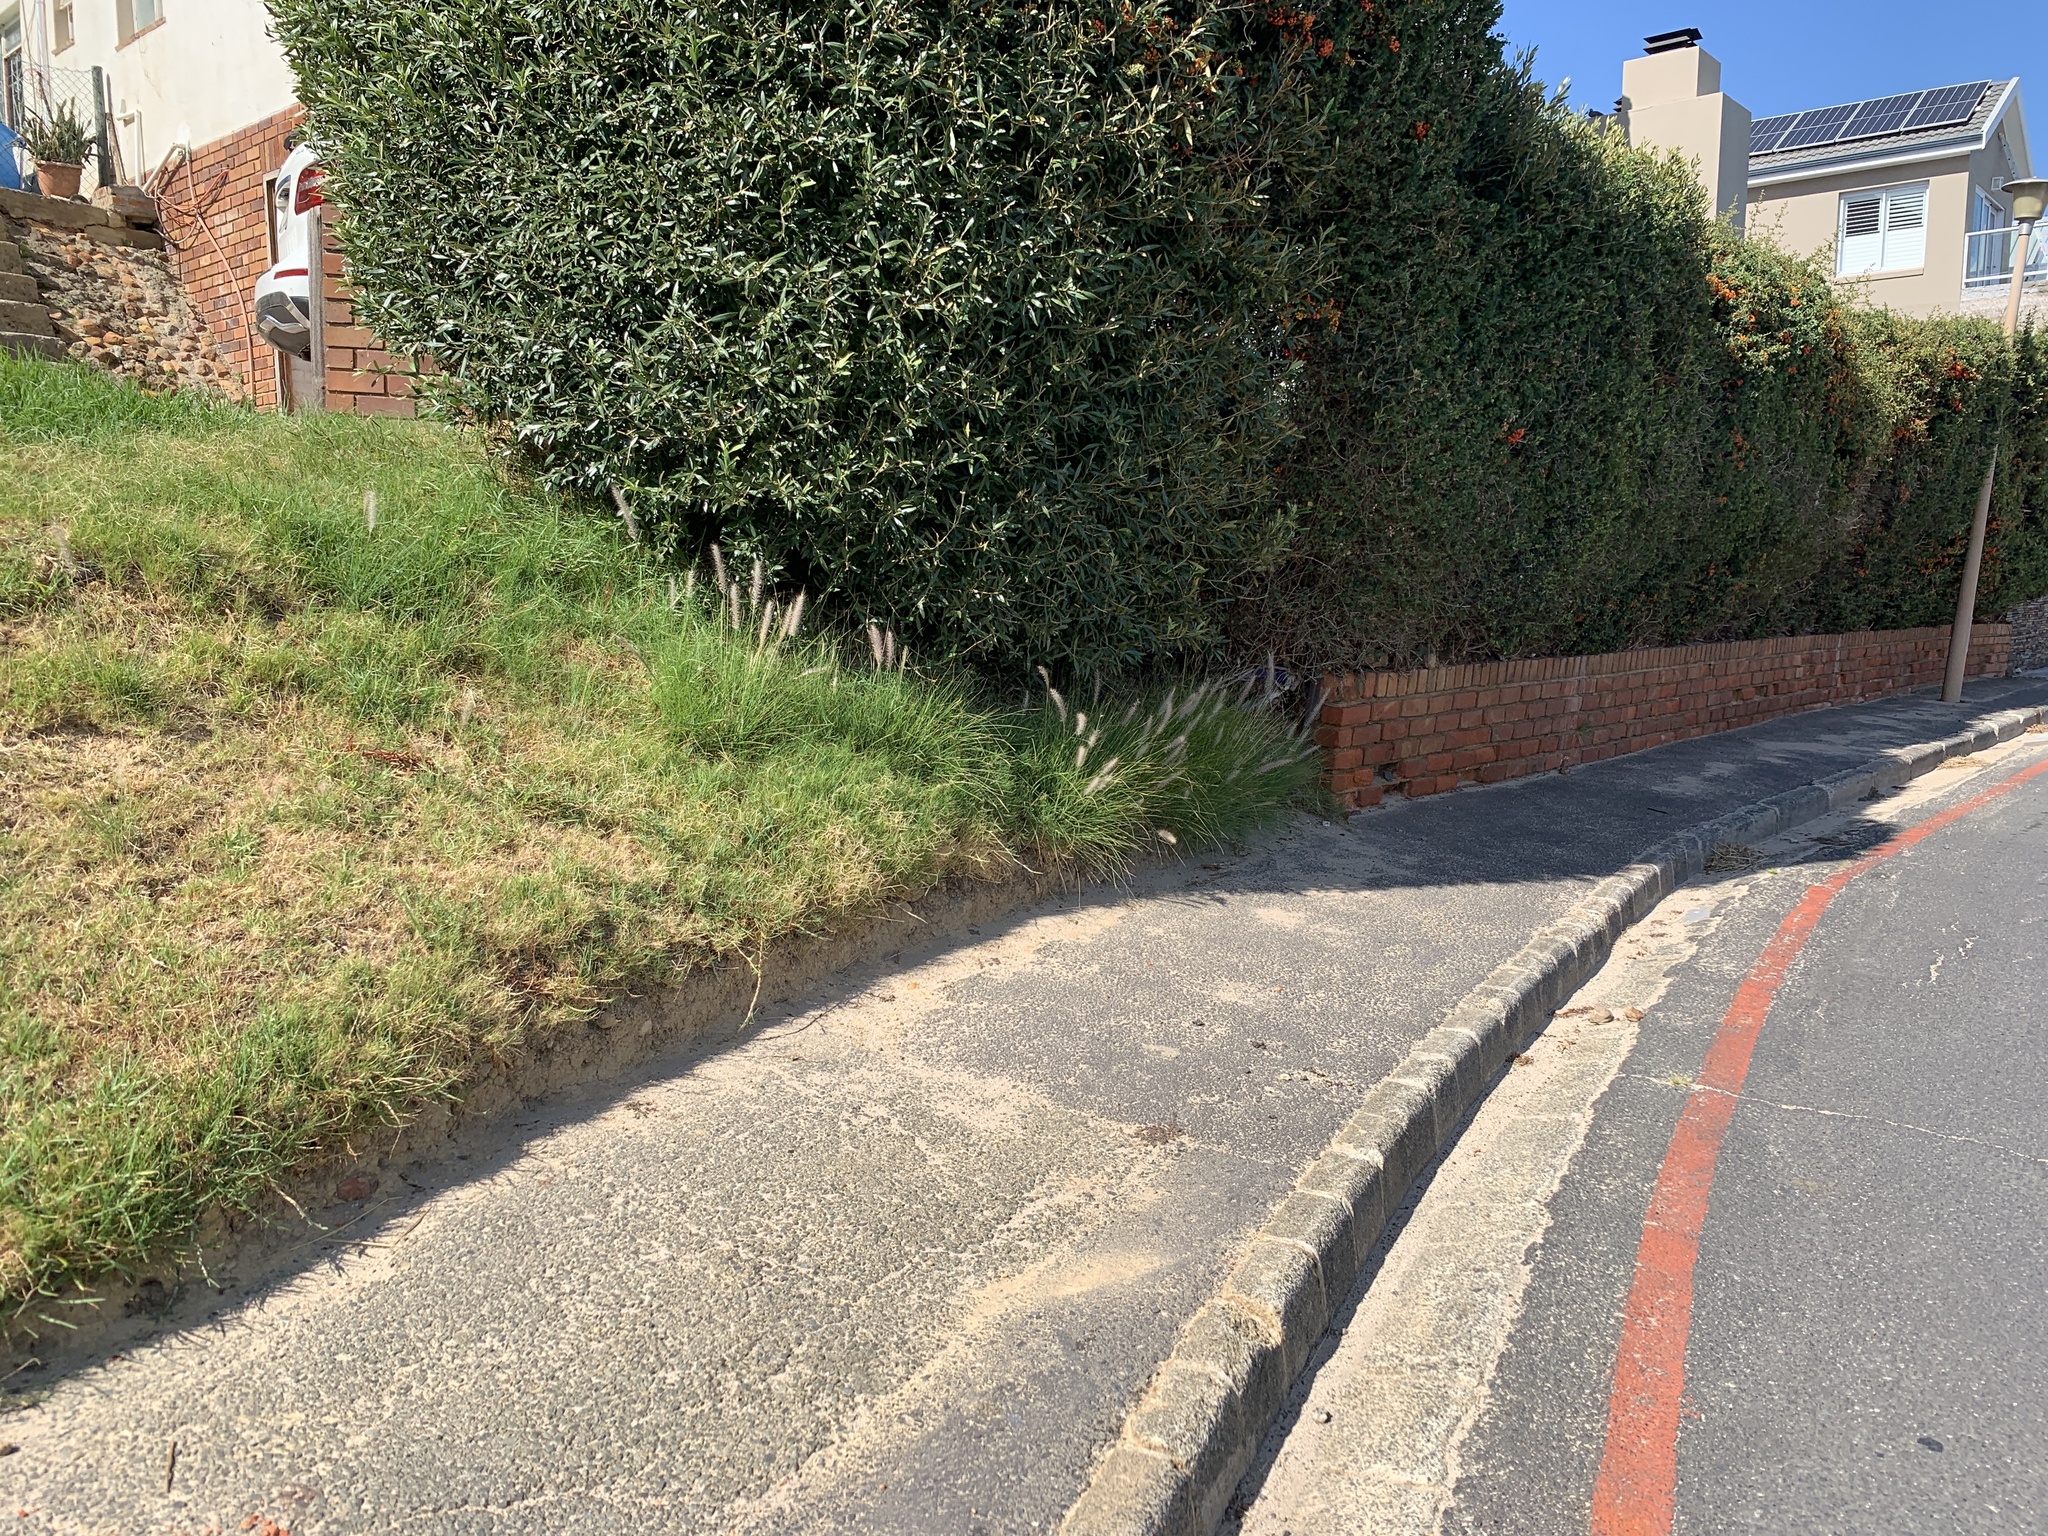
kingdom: Plantae
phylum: Tracheophyta
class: Liliopsida
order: Poales
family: Poaceae
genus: Cenchrus
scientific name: Cenchrus setaceus
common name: Crimson fountaingrass
